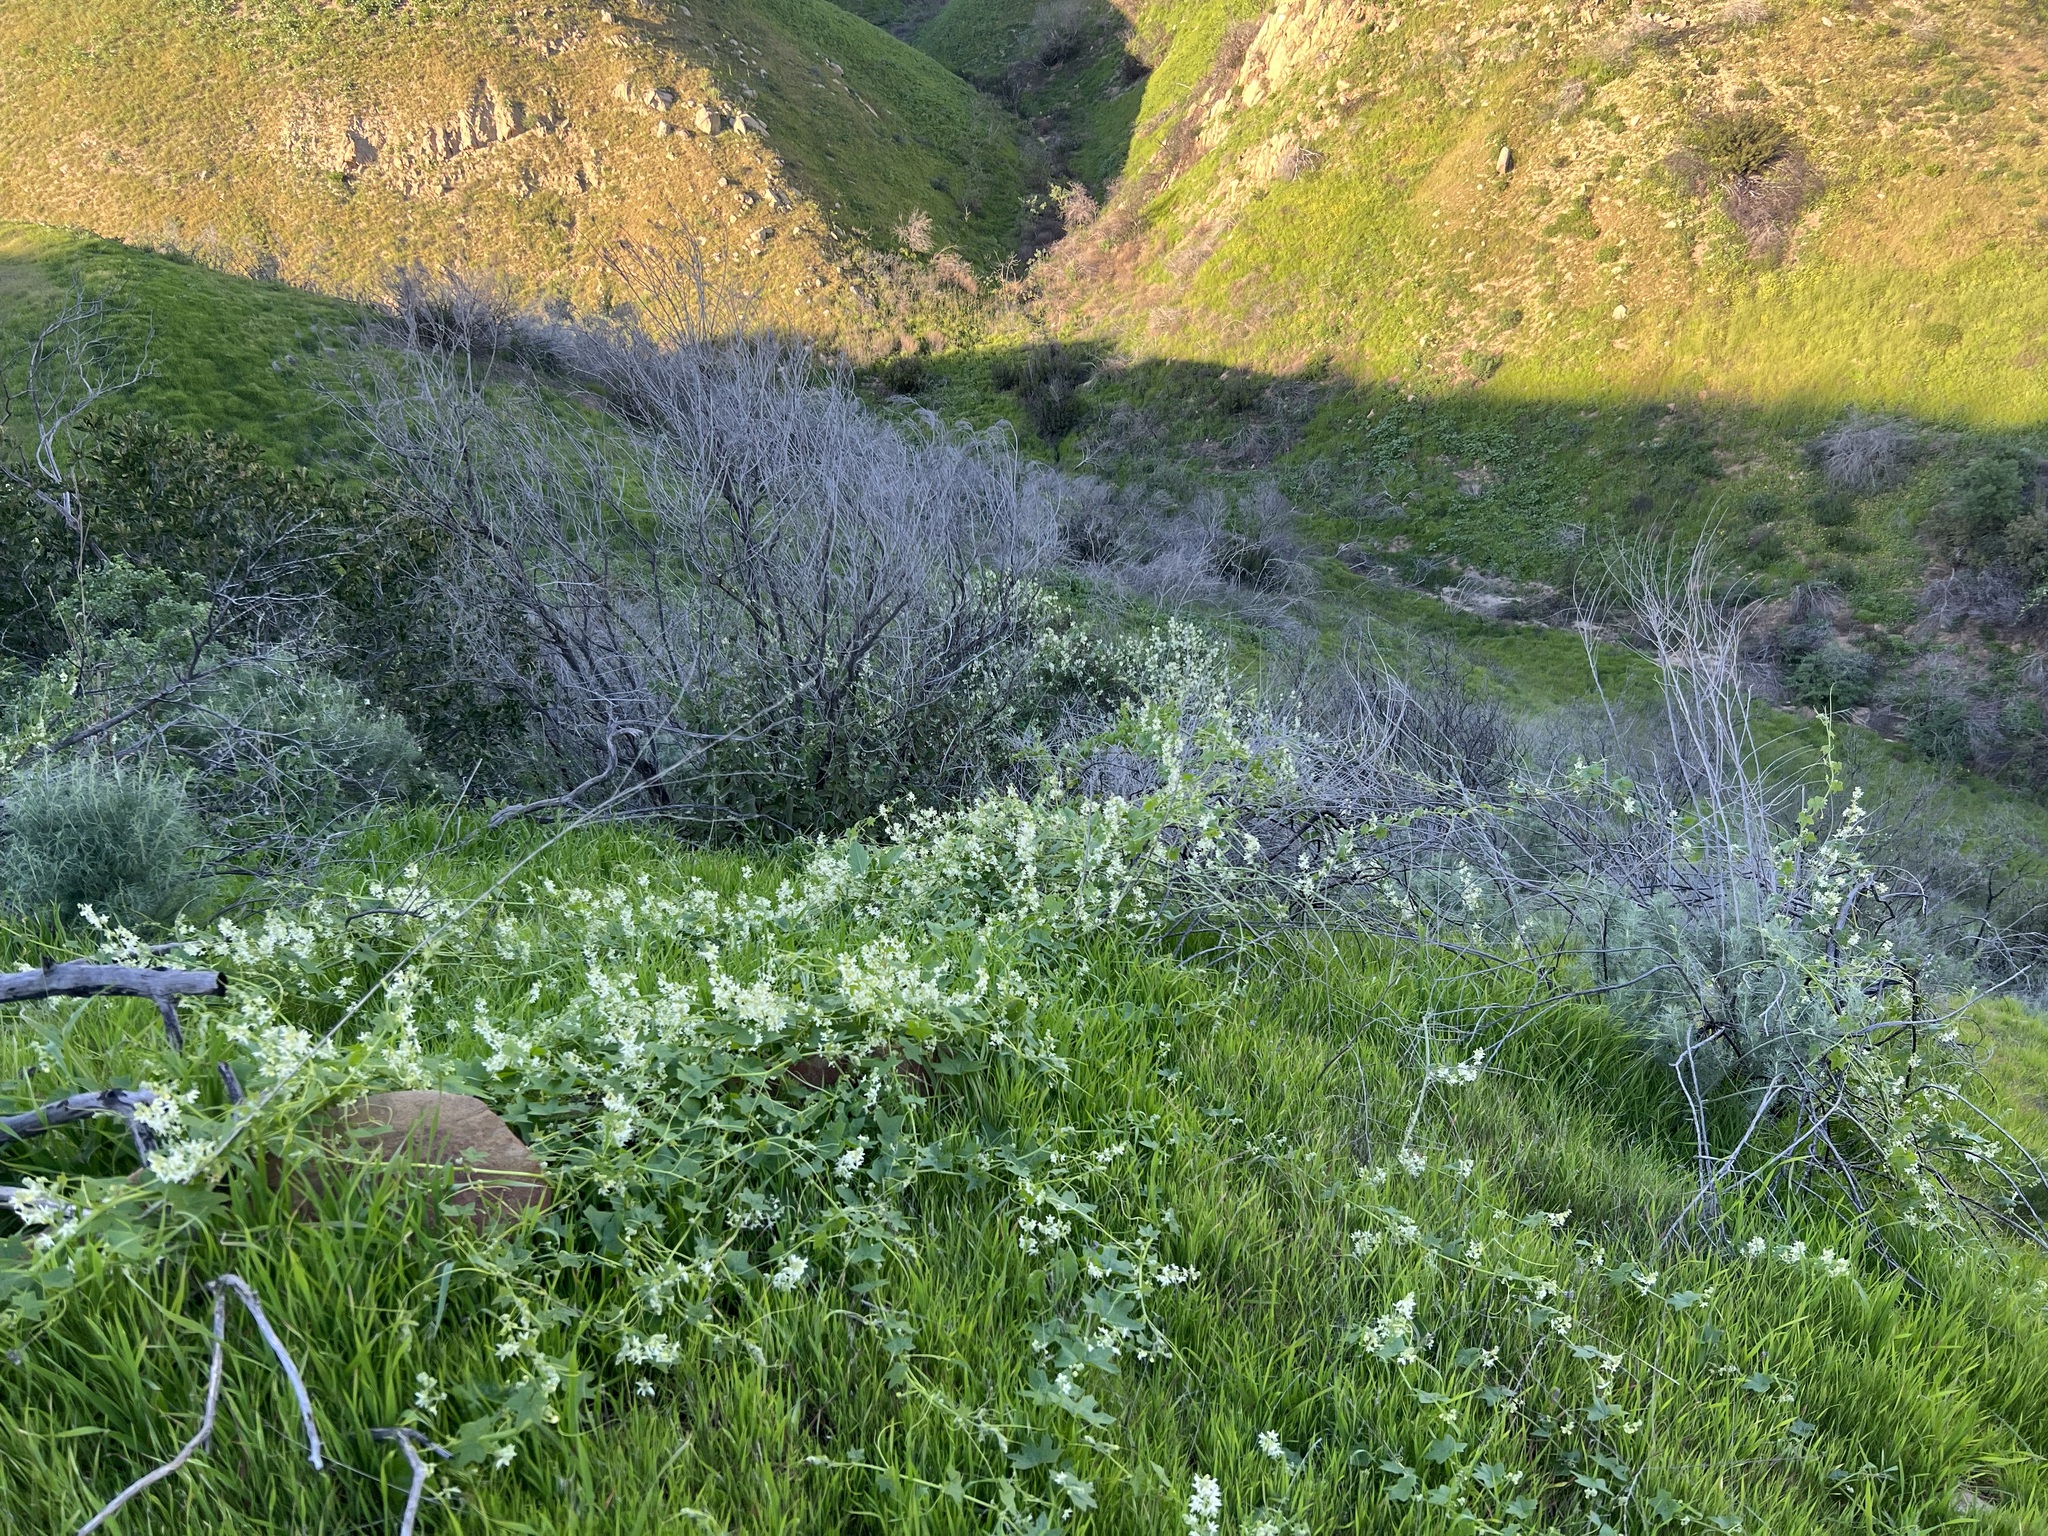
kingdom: Plantae
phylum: Tracheophyta
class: Magnoliopsida
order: Cucurbitales
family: Cucurbitaceae
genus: Marah
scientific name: Marah macrocarpa
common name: Cucamonga manroot
